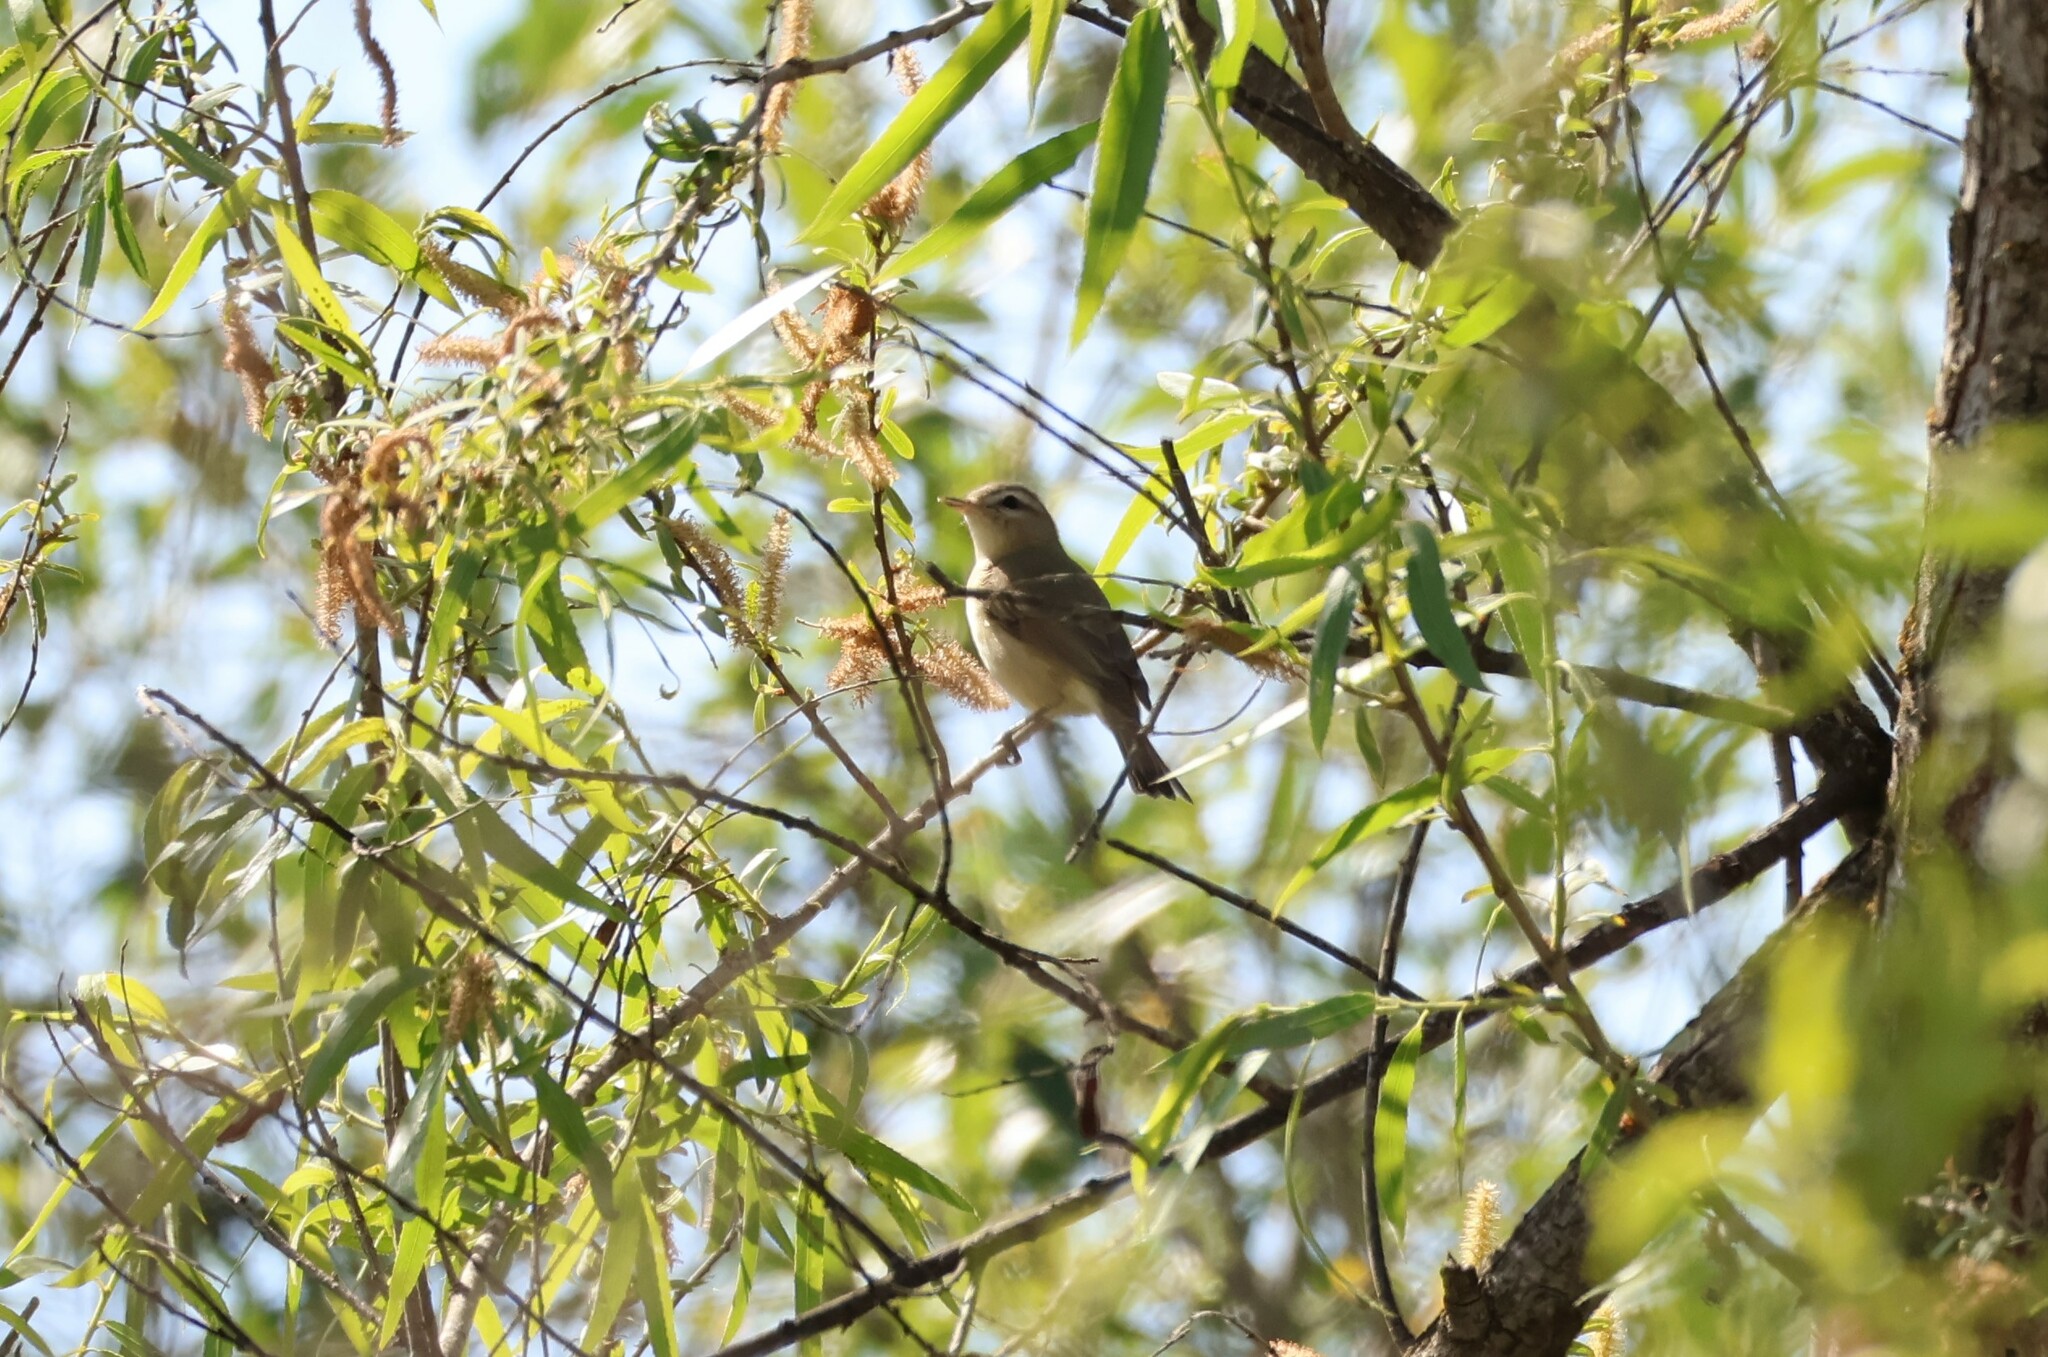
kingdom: Animalia
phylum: Chordata
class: Aves
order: Passeriformes
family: Vireonidae
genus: Vireo
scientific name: Vireo gilvus
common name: Warbling vireo
